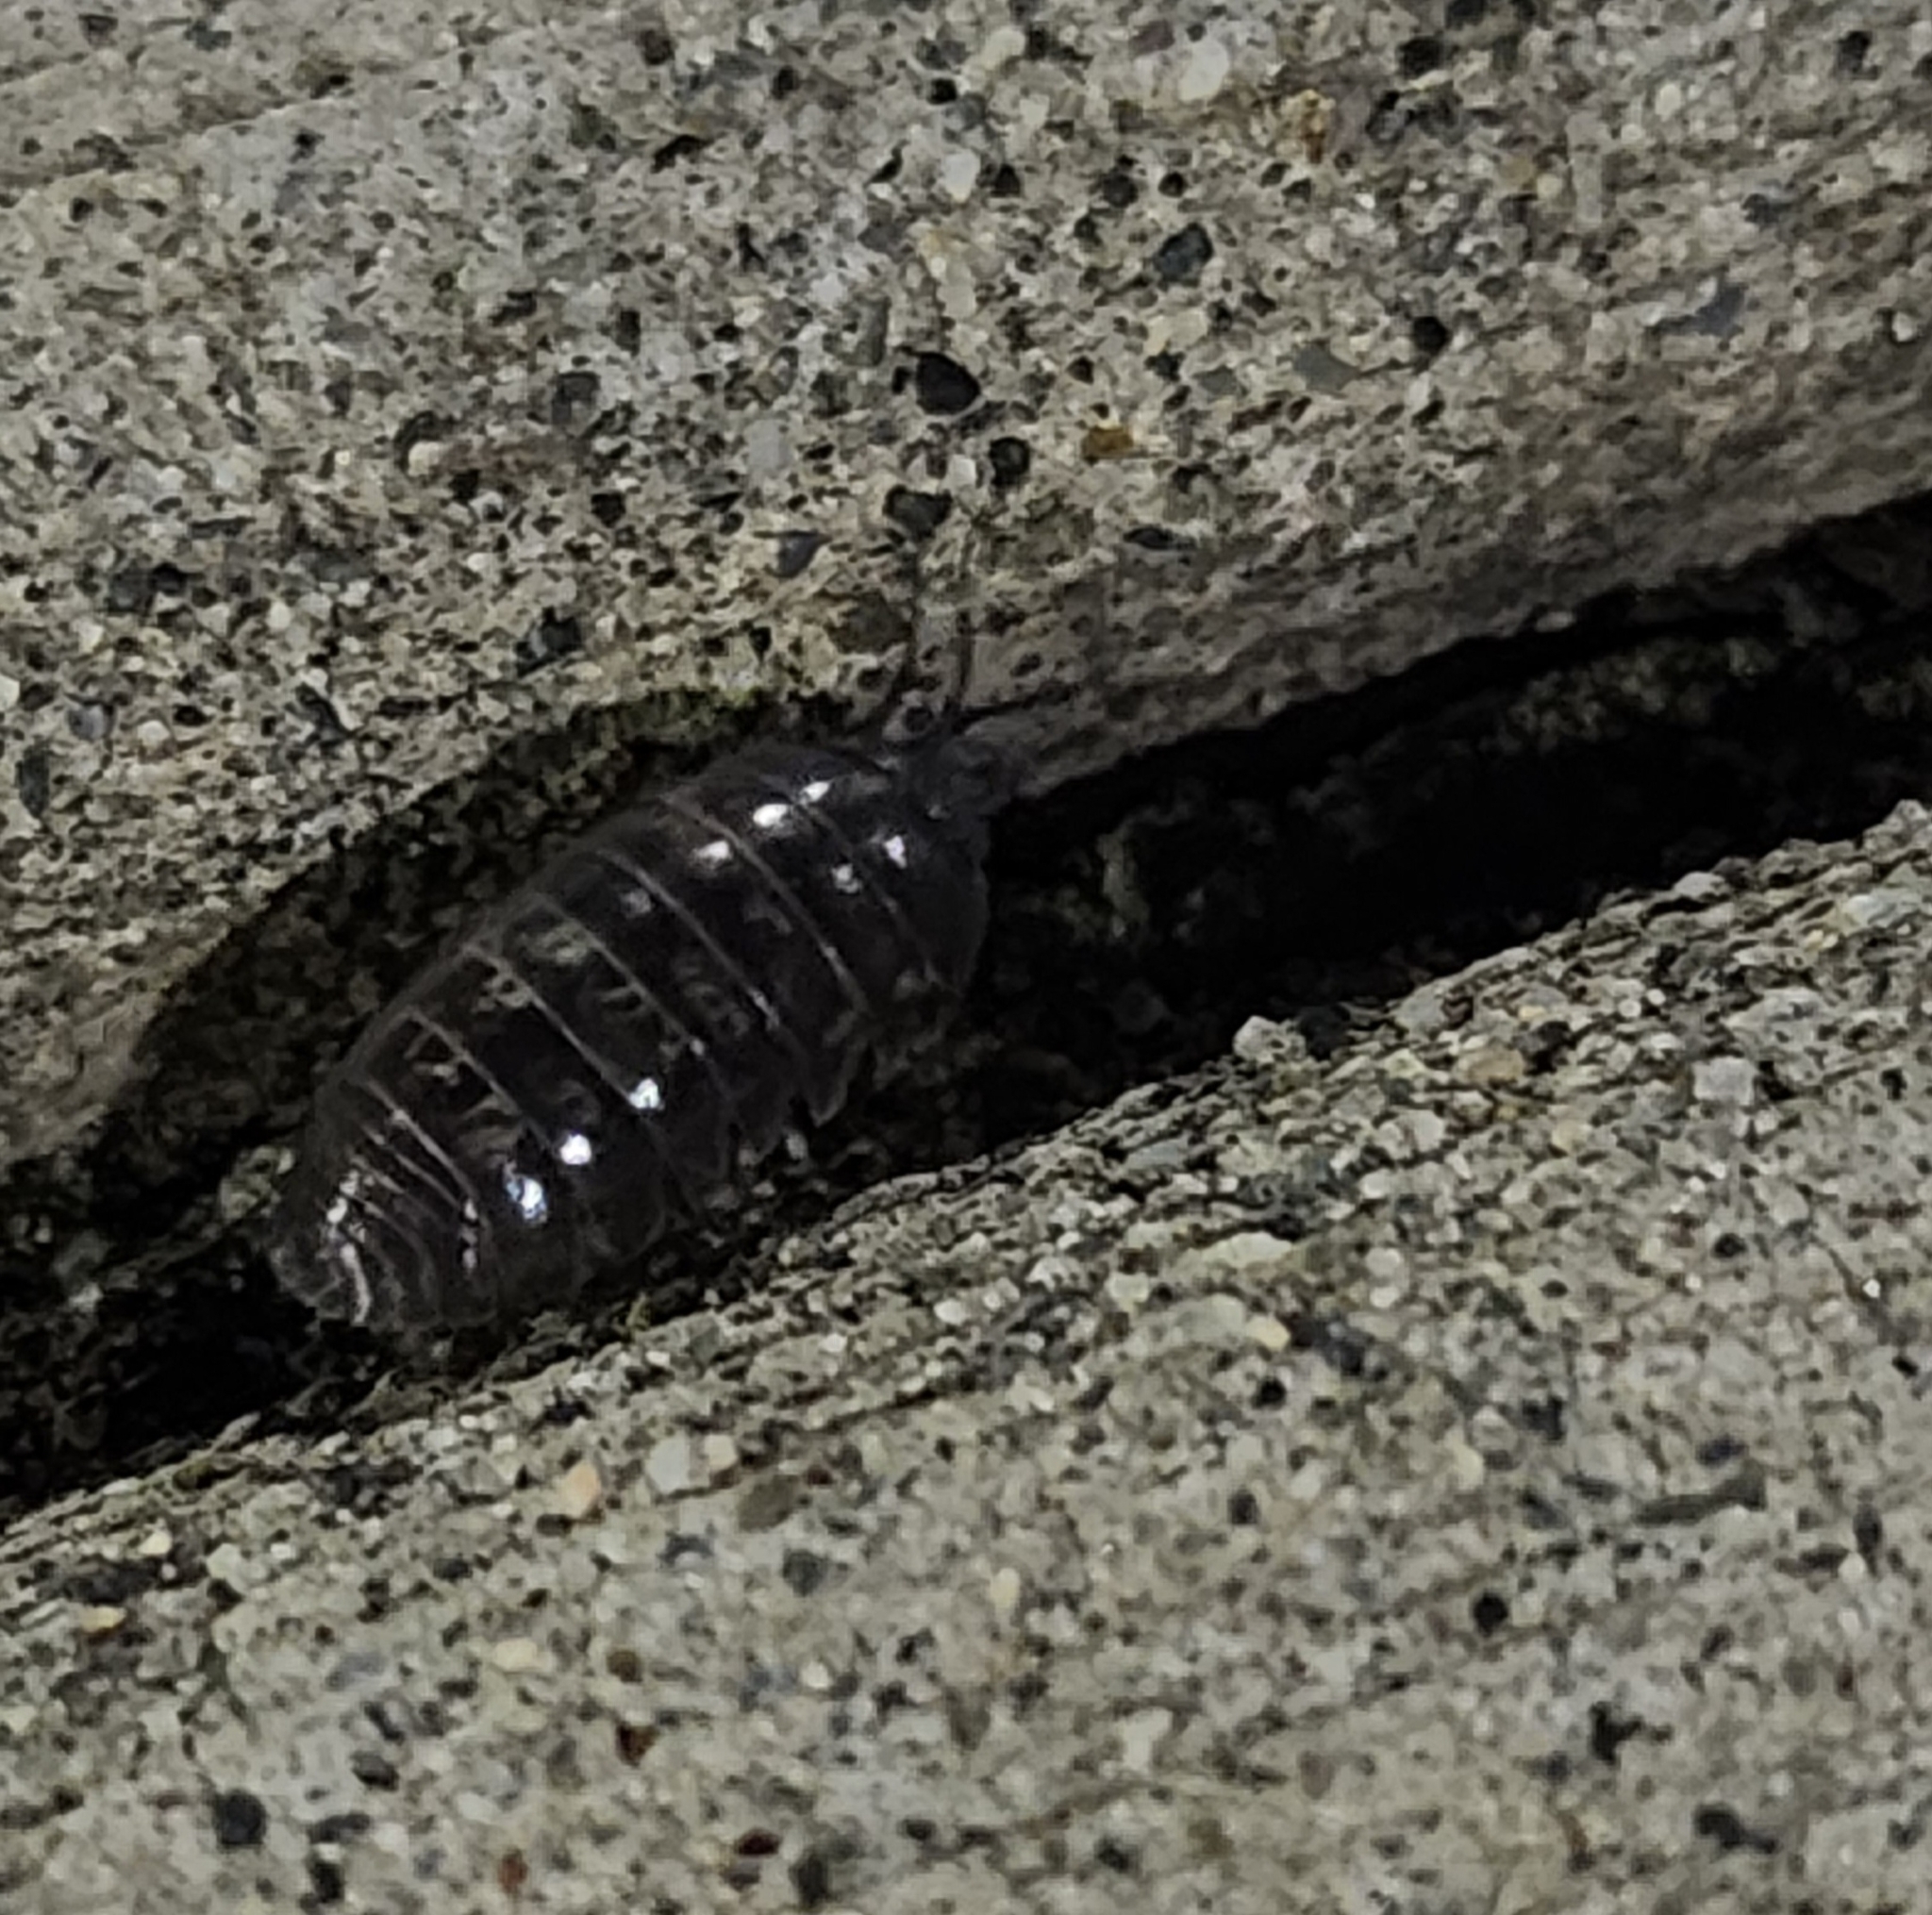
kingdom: Animalia
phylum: Arthropoda
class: Malacostraca
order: Isopoda
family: Armadillidiidae
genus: Armadillidium
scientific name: Armadillidium vulgare
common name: Common pill woodlouse
